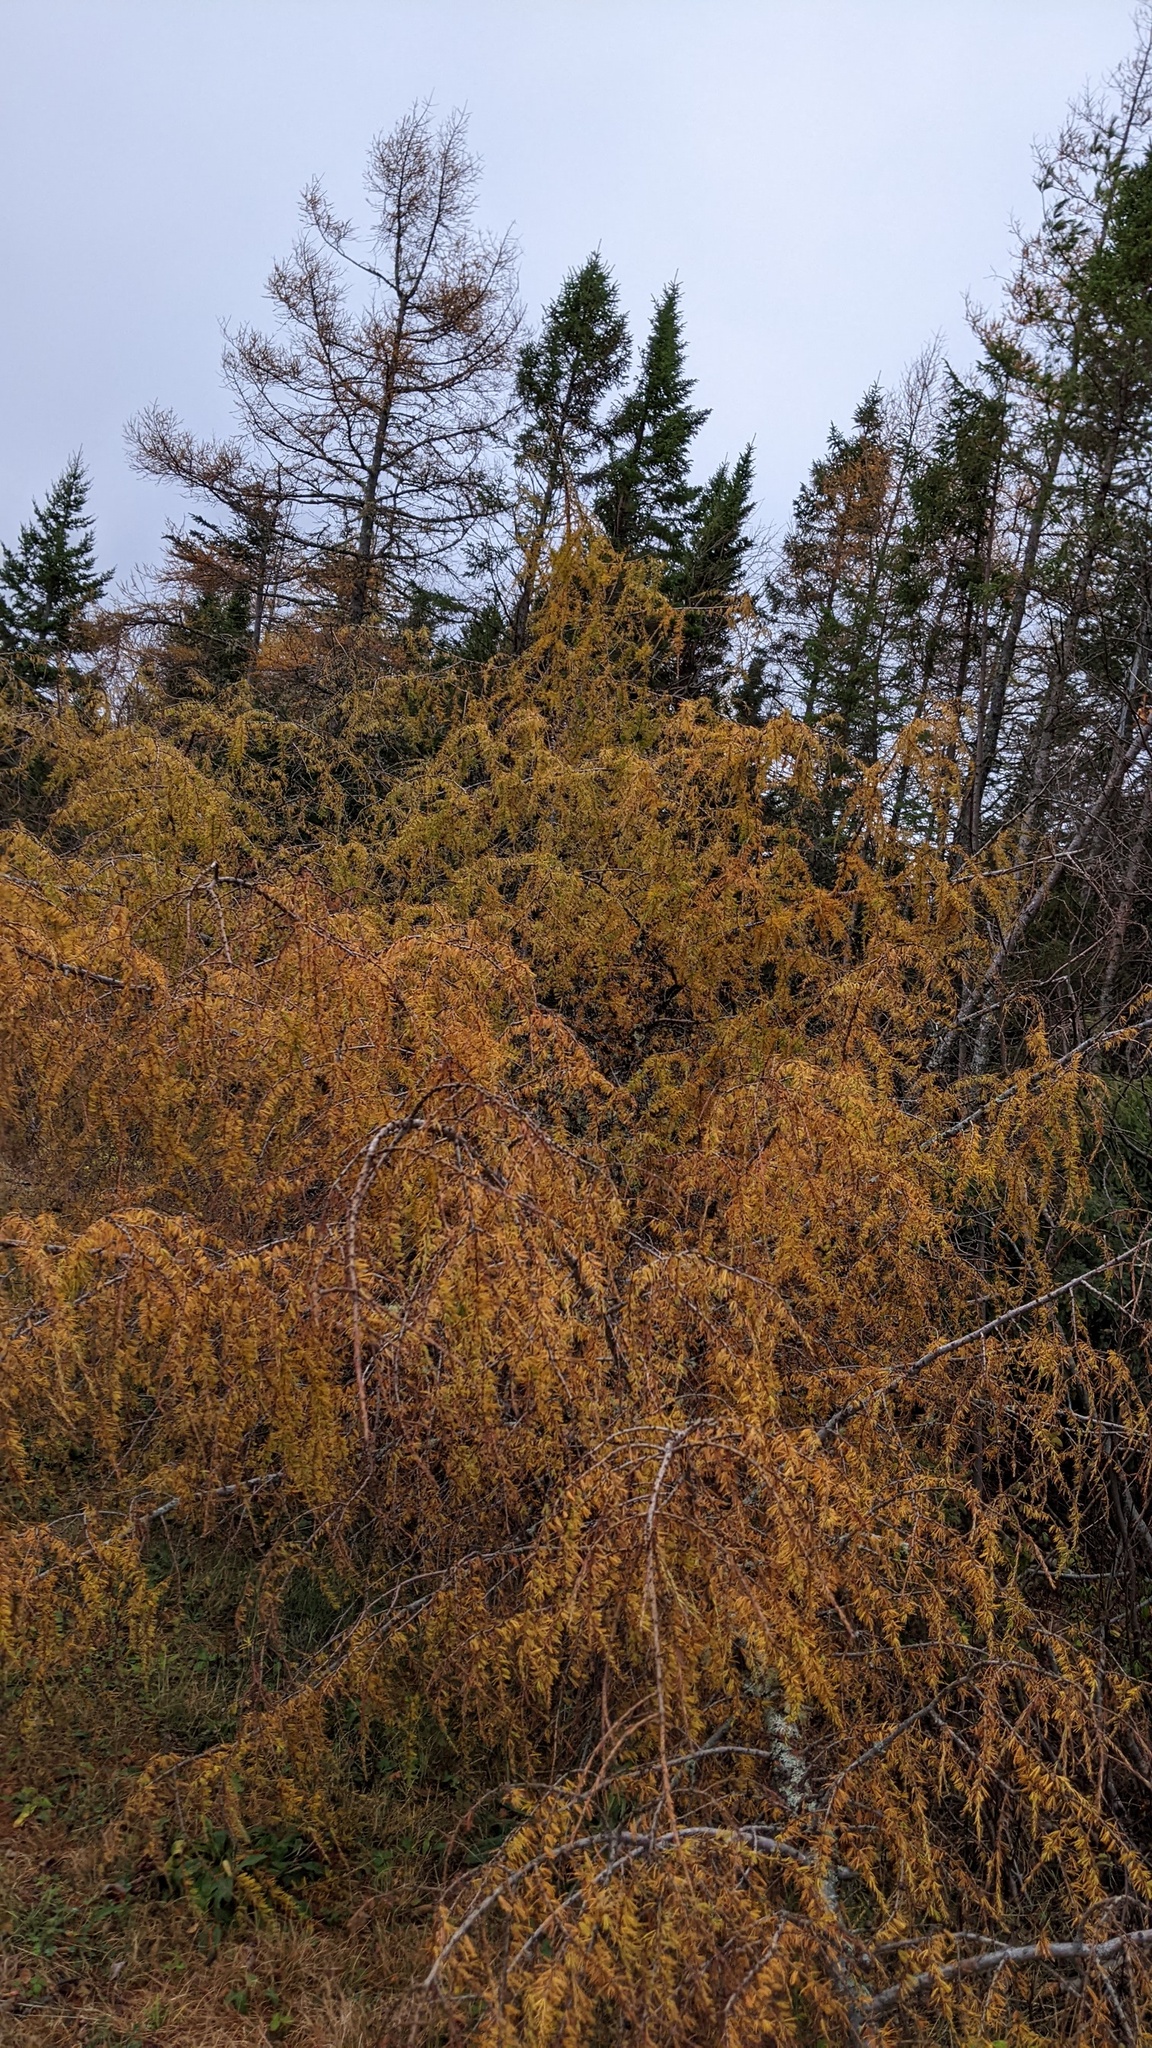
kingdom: Plantae
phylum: Tracheophyta
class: Pinopsida
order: Pinales
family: Pinaceae
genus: Larix
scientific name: Larix laricina
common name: American larch
